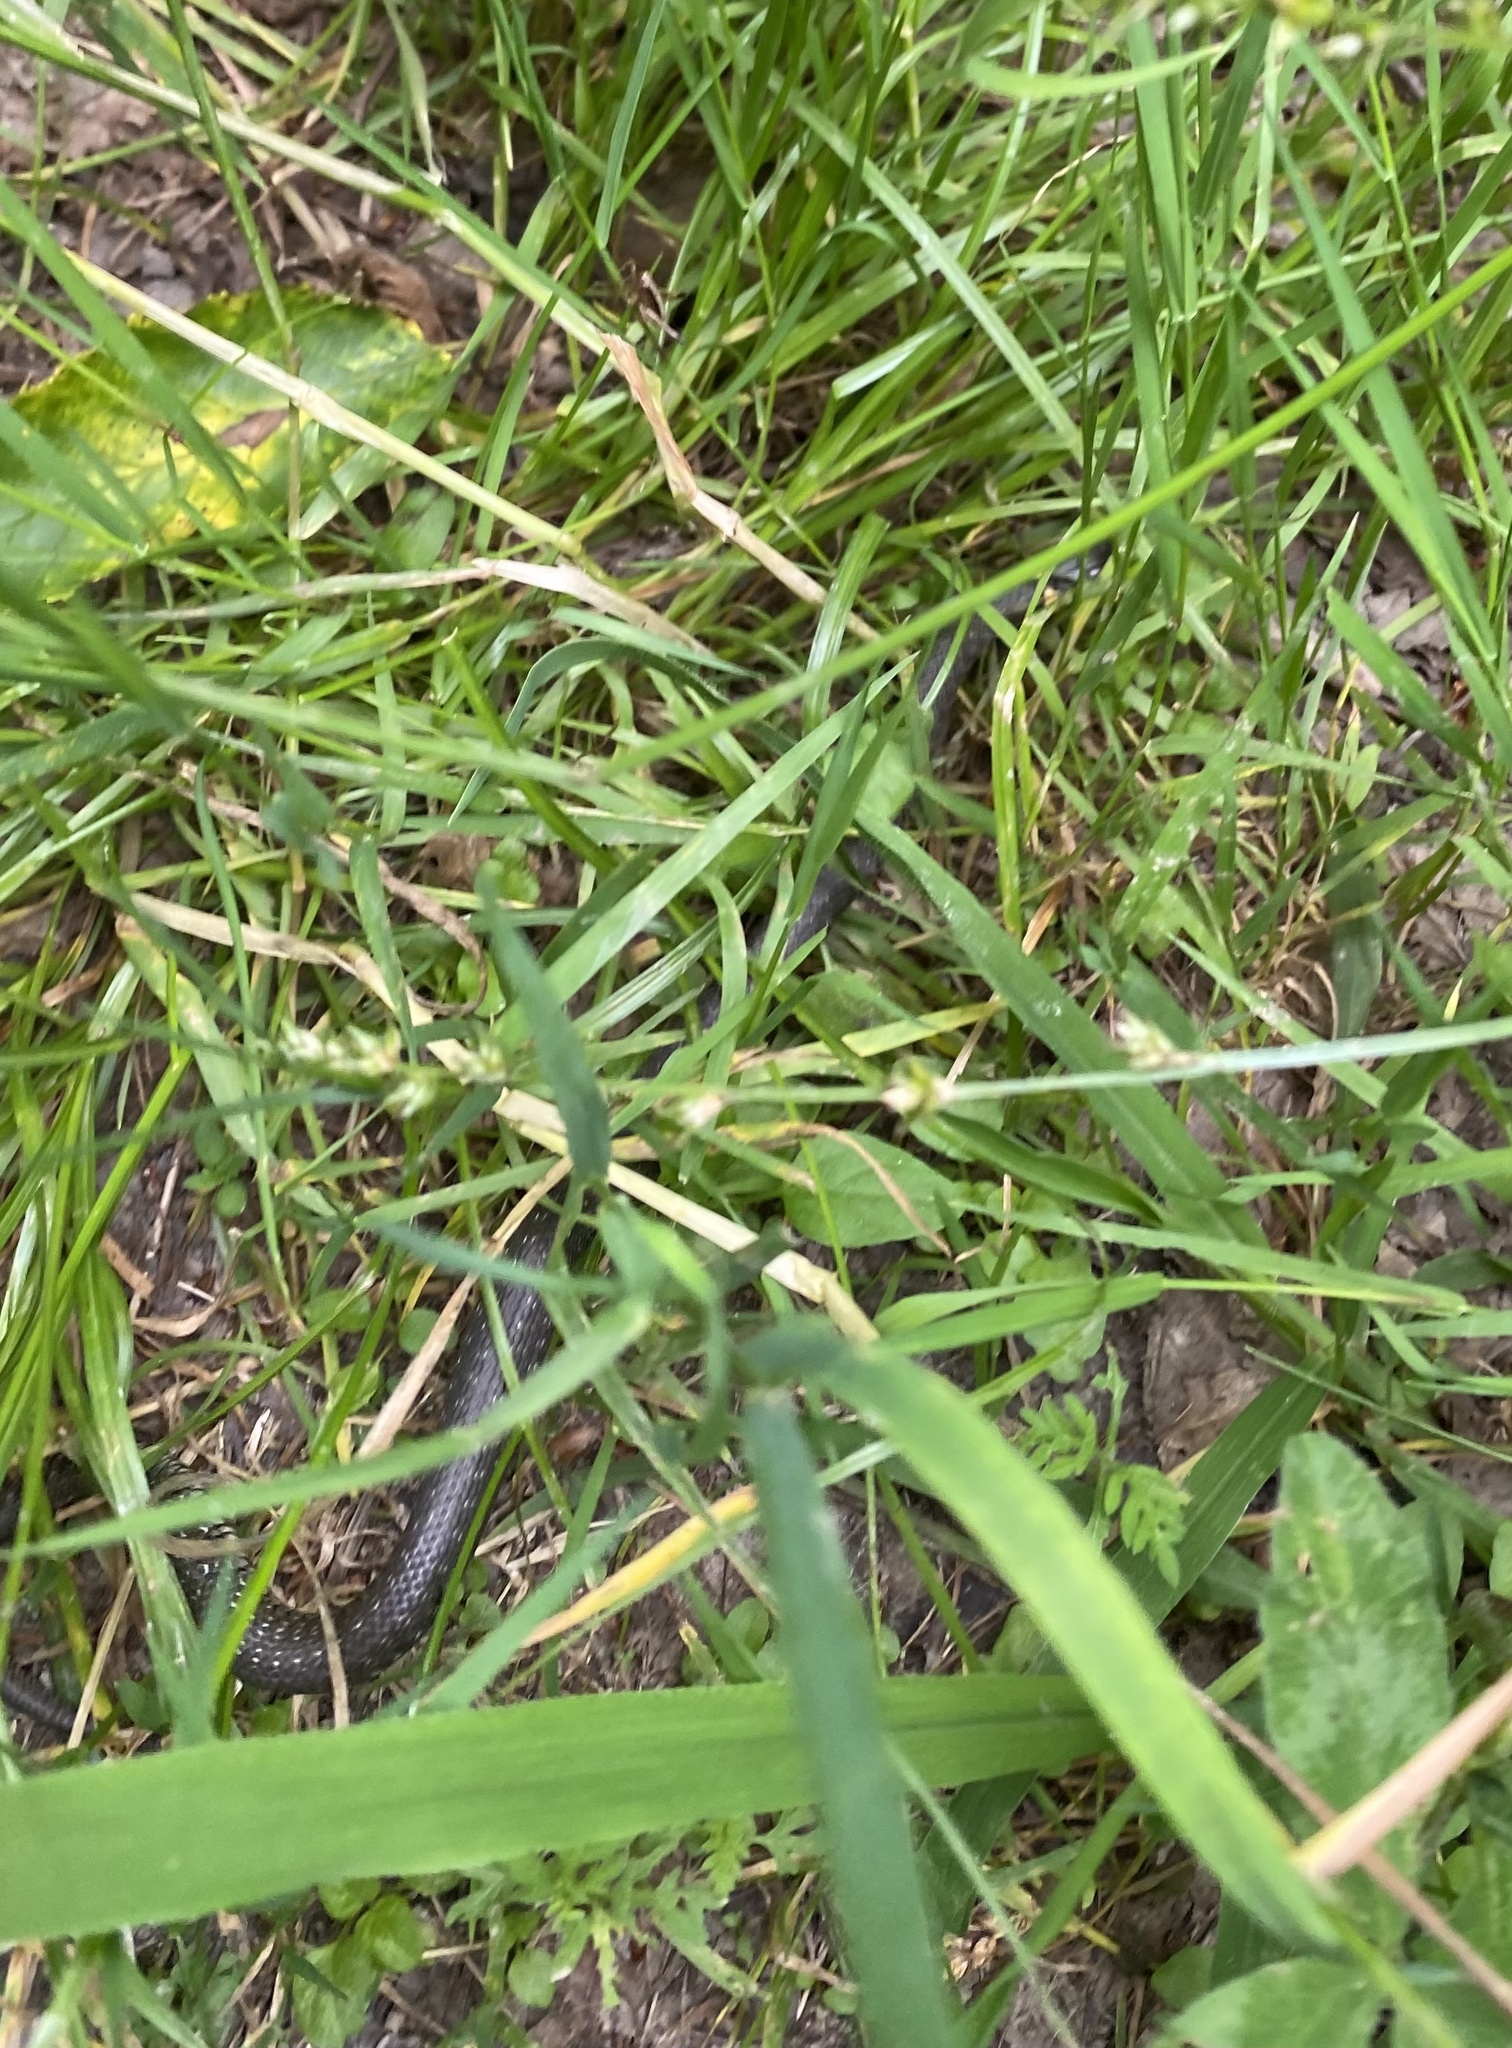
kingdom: Animalia
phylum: Chordata
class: Squamata
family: Colubridae
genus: Natrix
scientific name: Natrix natrix
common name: Grass snake
